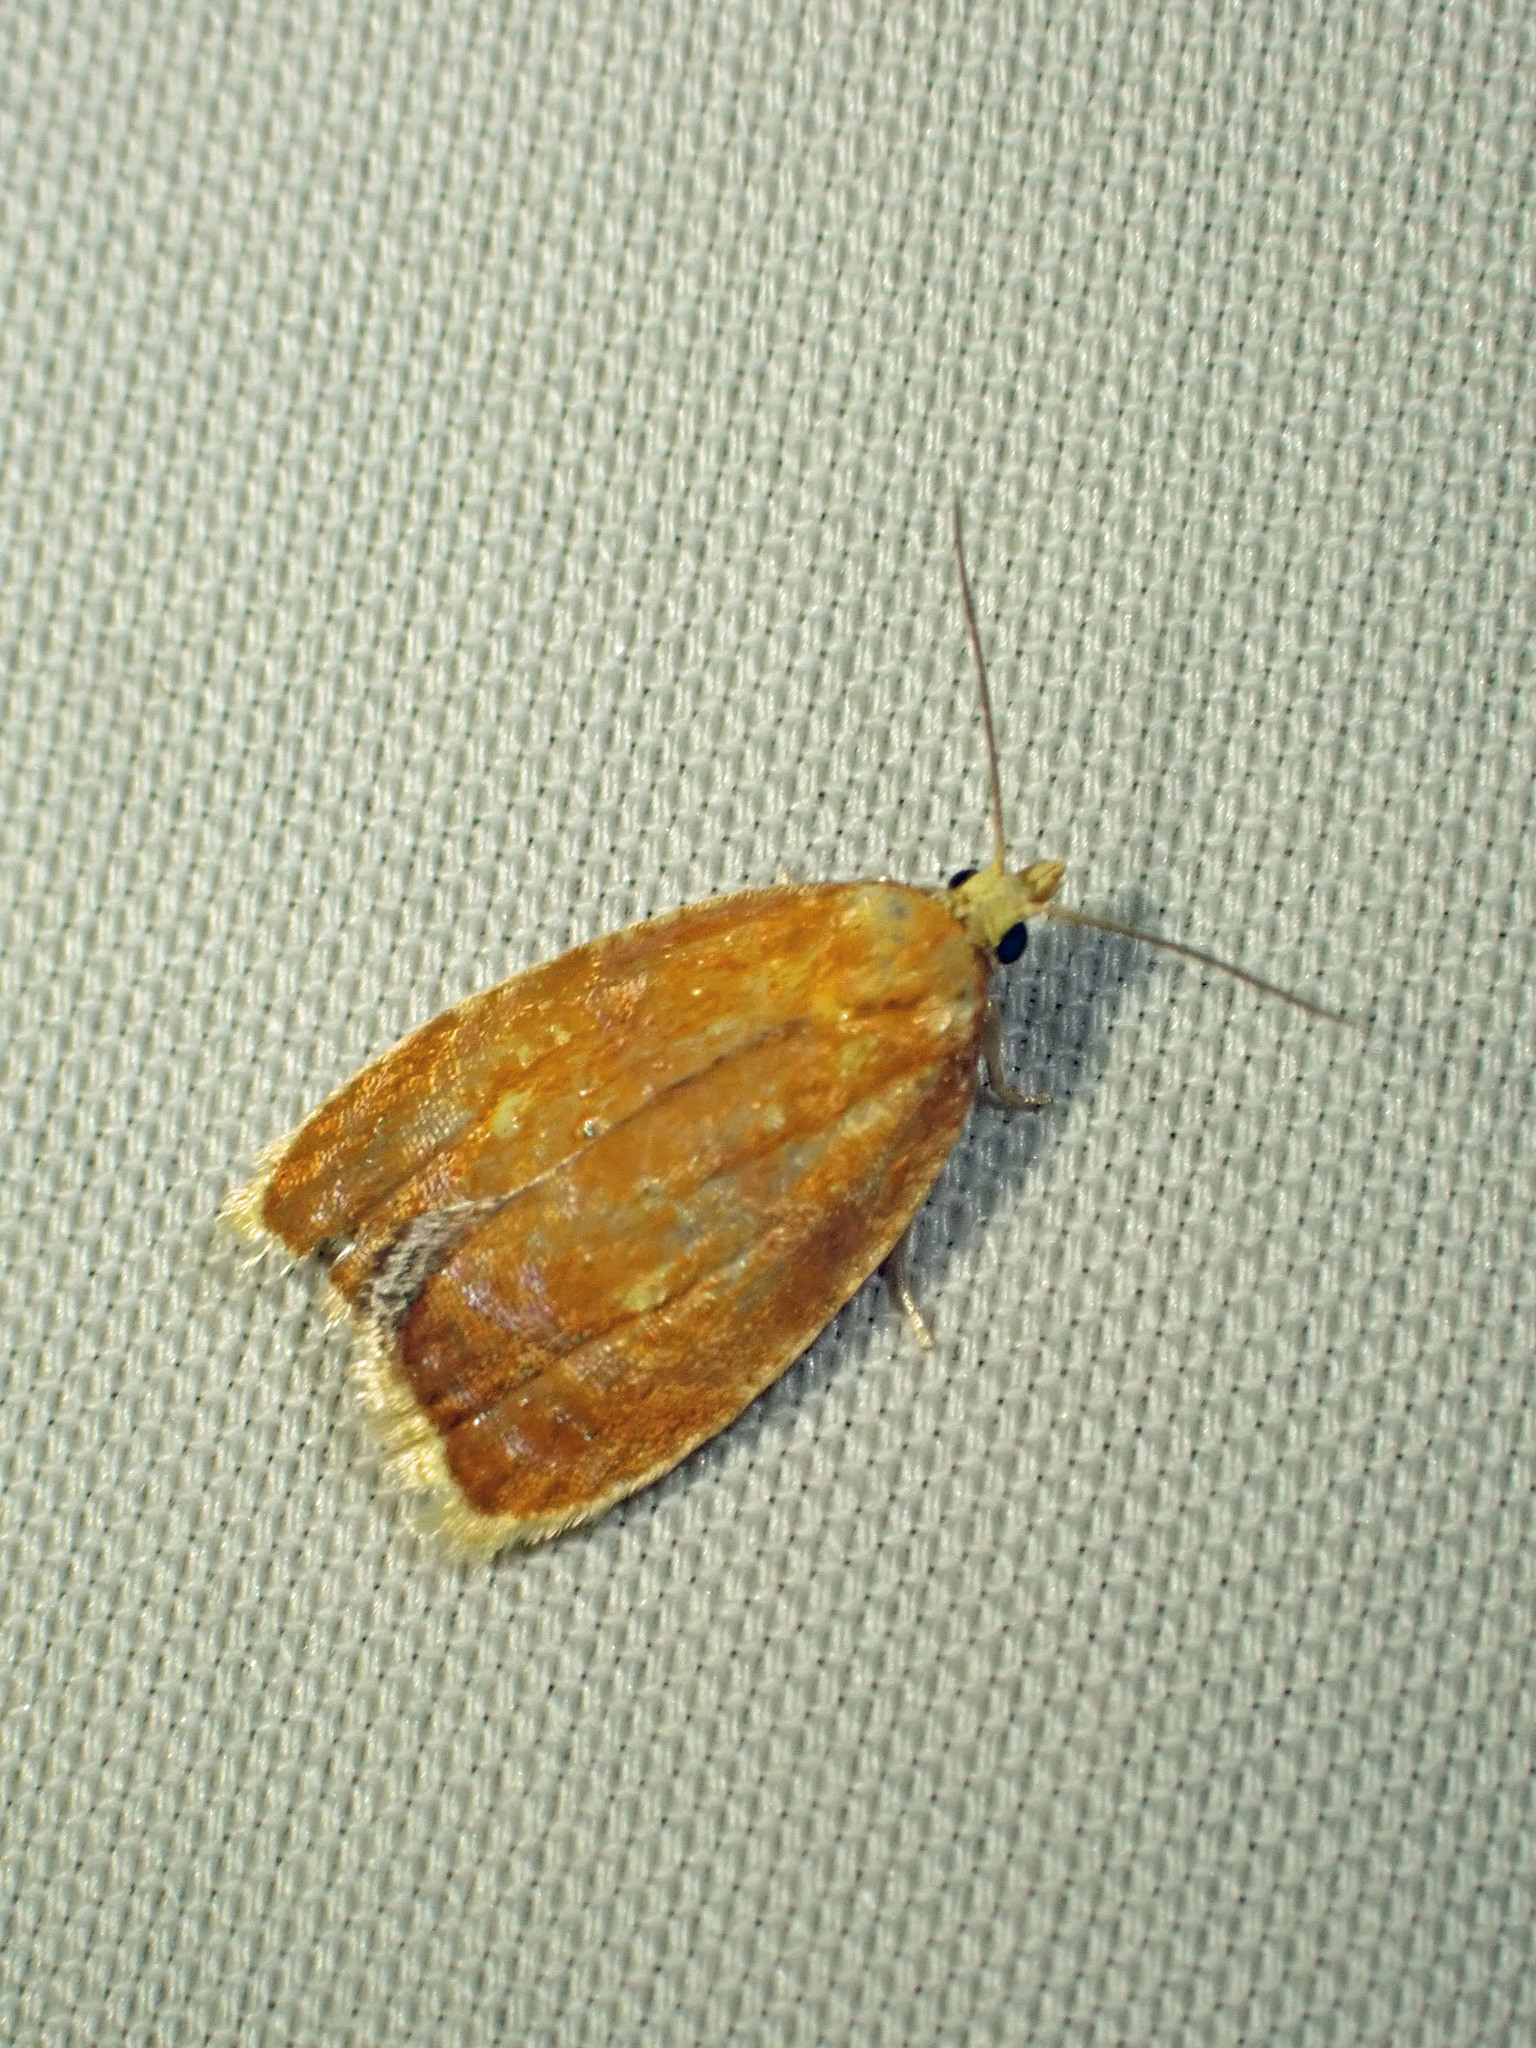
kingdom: Animalia
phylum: Arthropoda
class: Insecta
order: Lepidoptera
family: Tortricidae
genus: Acleris
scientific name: Acleris curvalana
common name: Blueberry leaftier moth
